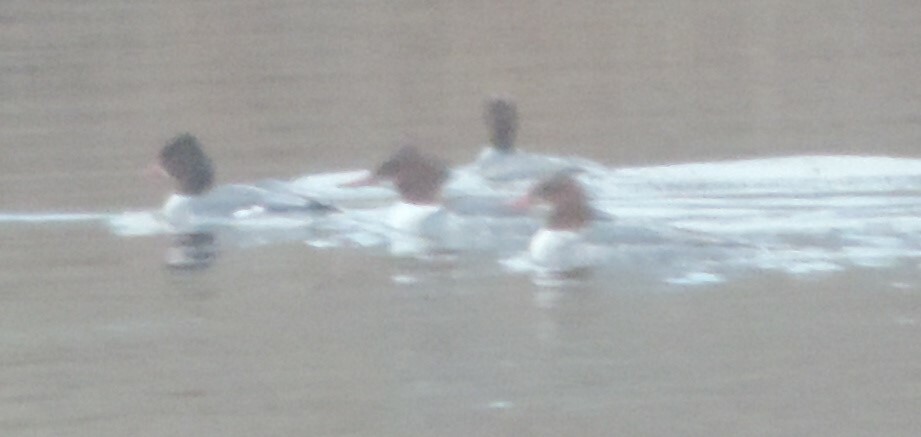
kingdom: Animalia
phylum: Chordata
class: Aves
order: Anseriformes
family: Anatidae
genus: Mergus
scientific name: Mergus merganser
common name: Common merganser
